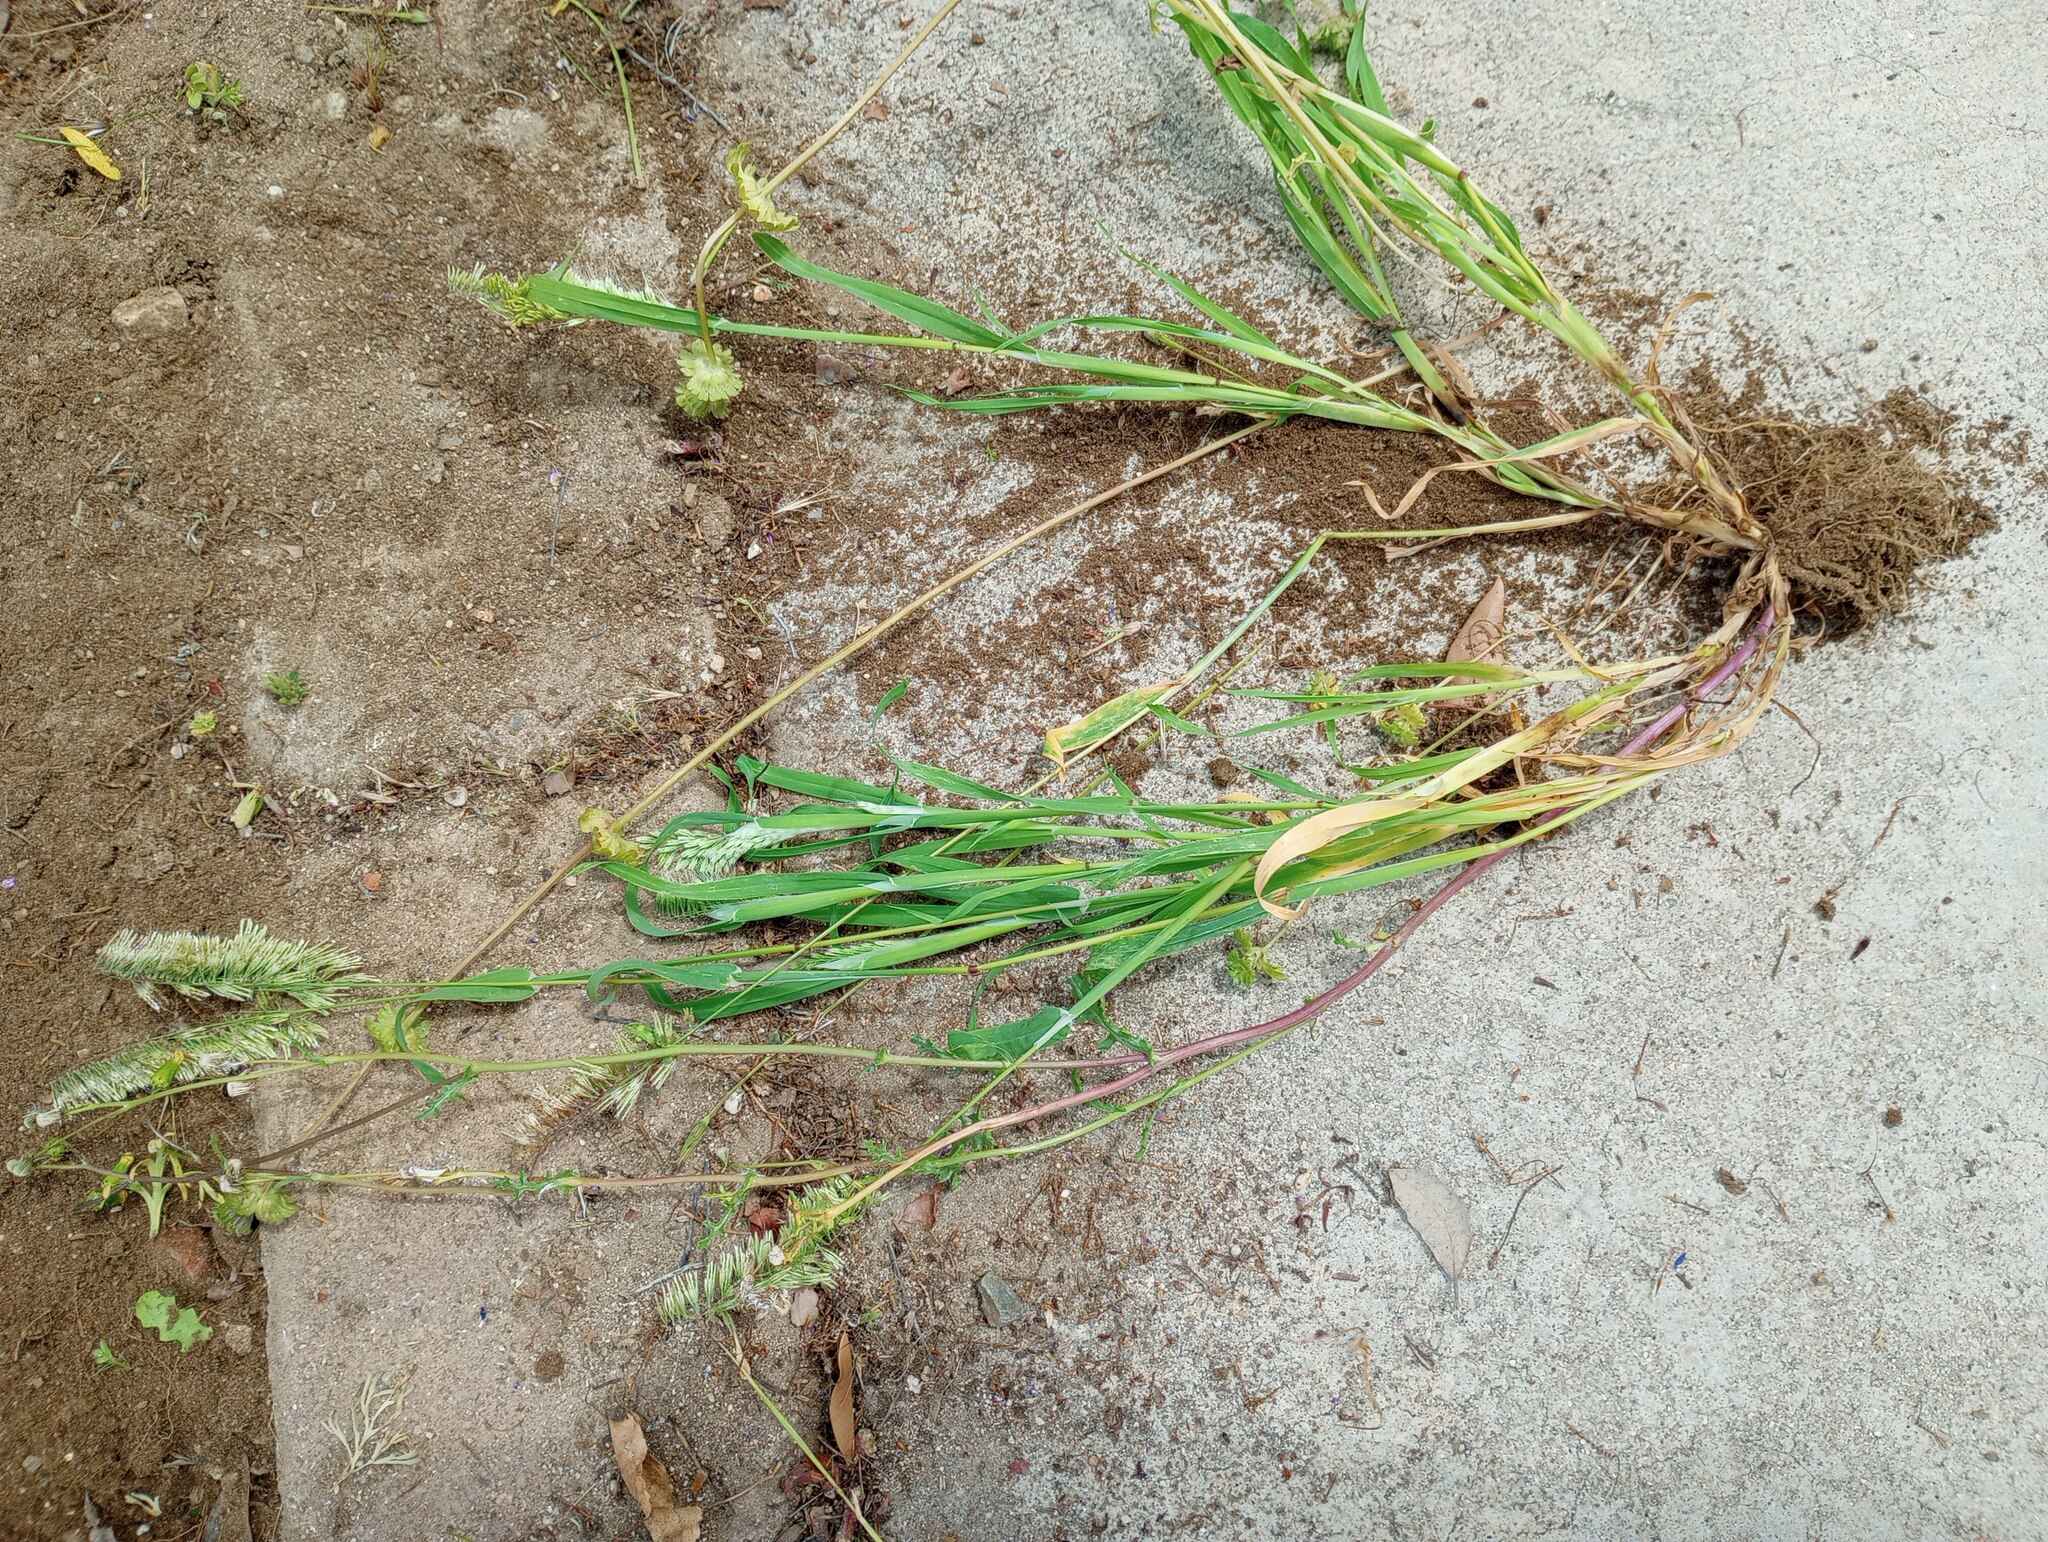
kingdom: Plantae
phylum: Tracheophyta
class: Liliopsida
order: Poales
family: Poaceae
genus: Lamarckia
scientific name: Lamarckia aurea
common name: Golden dog's-tail
